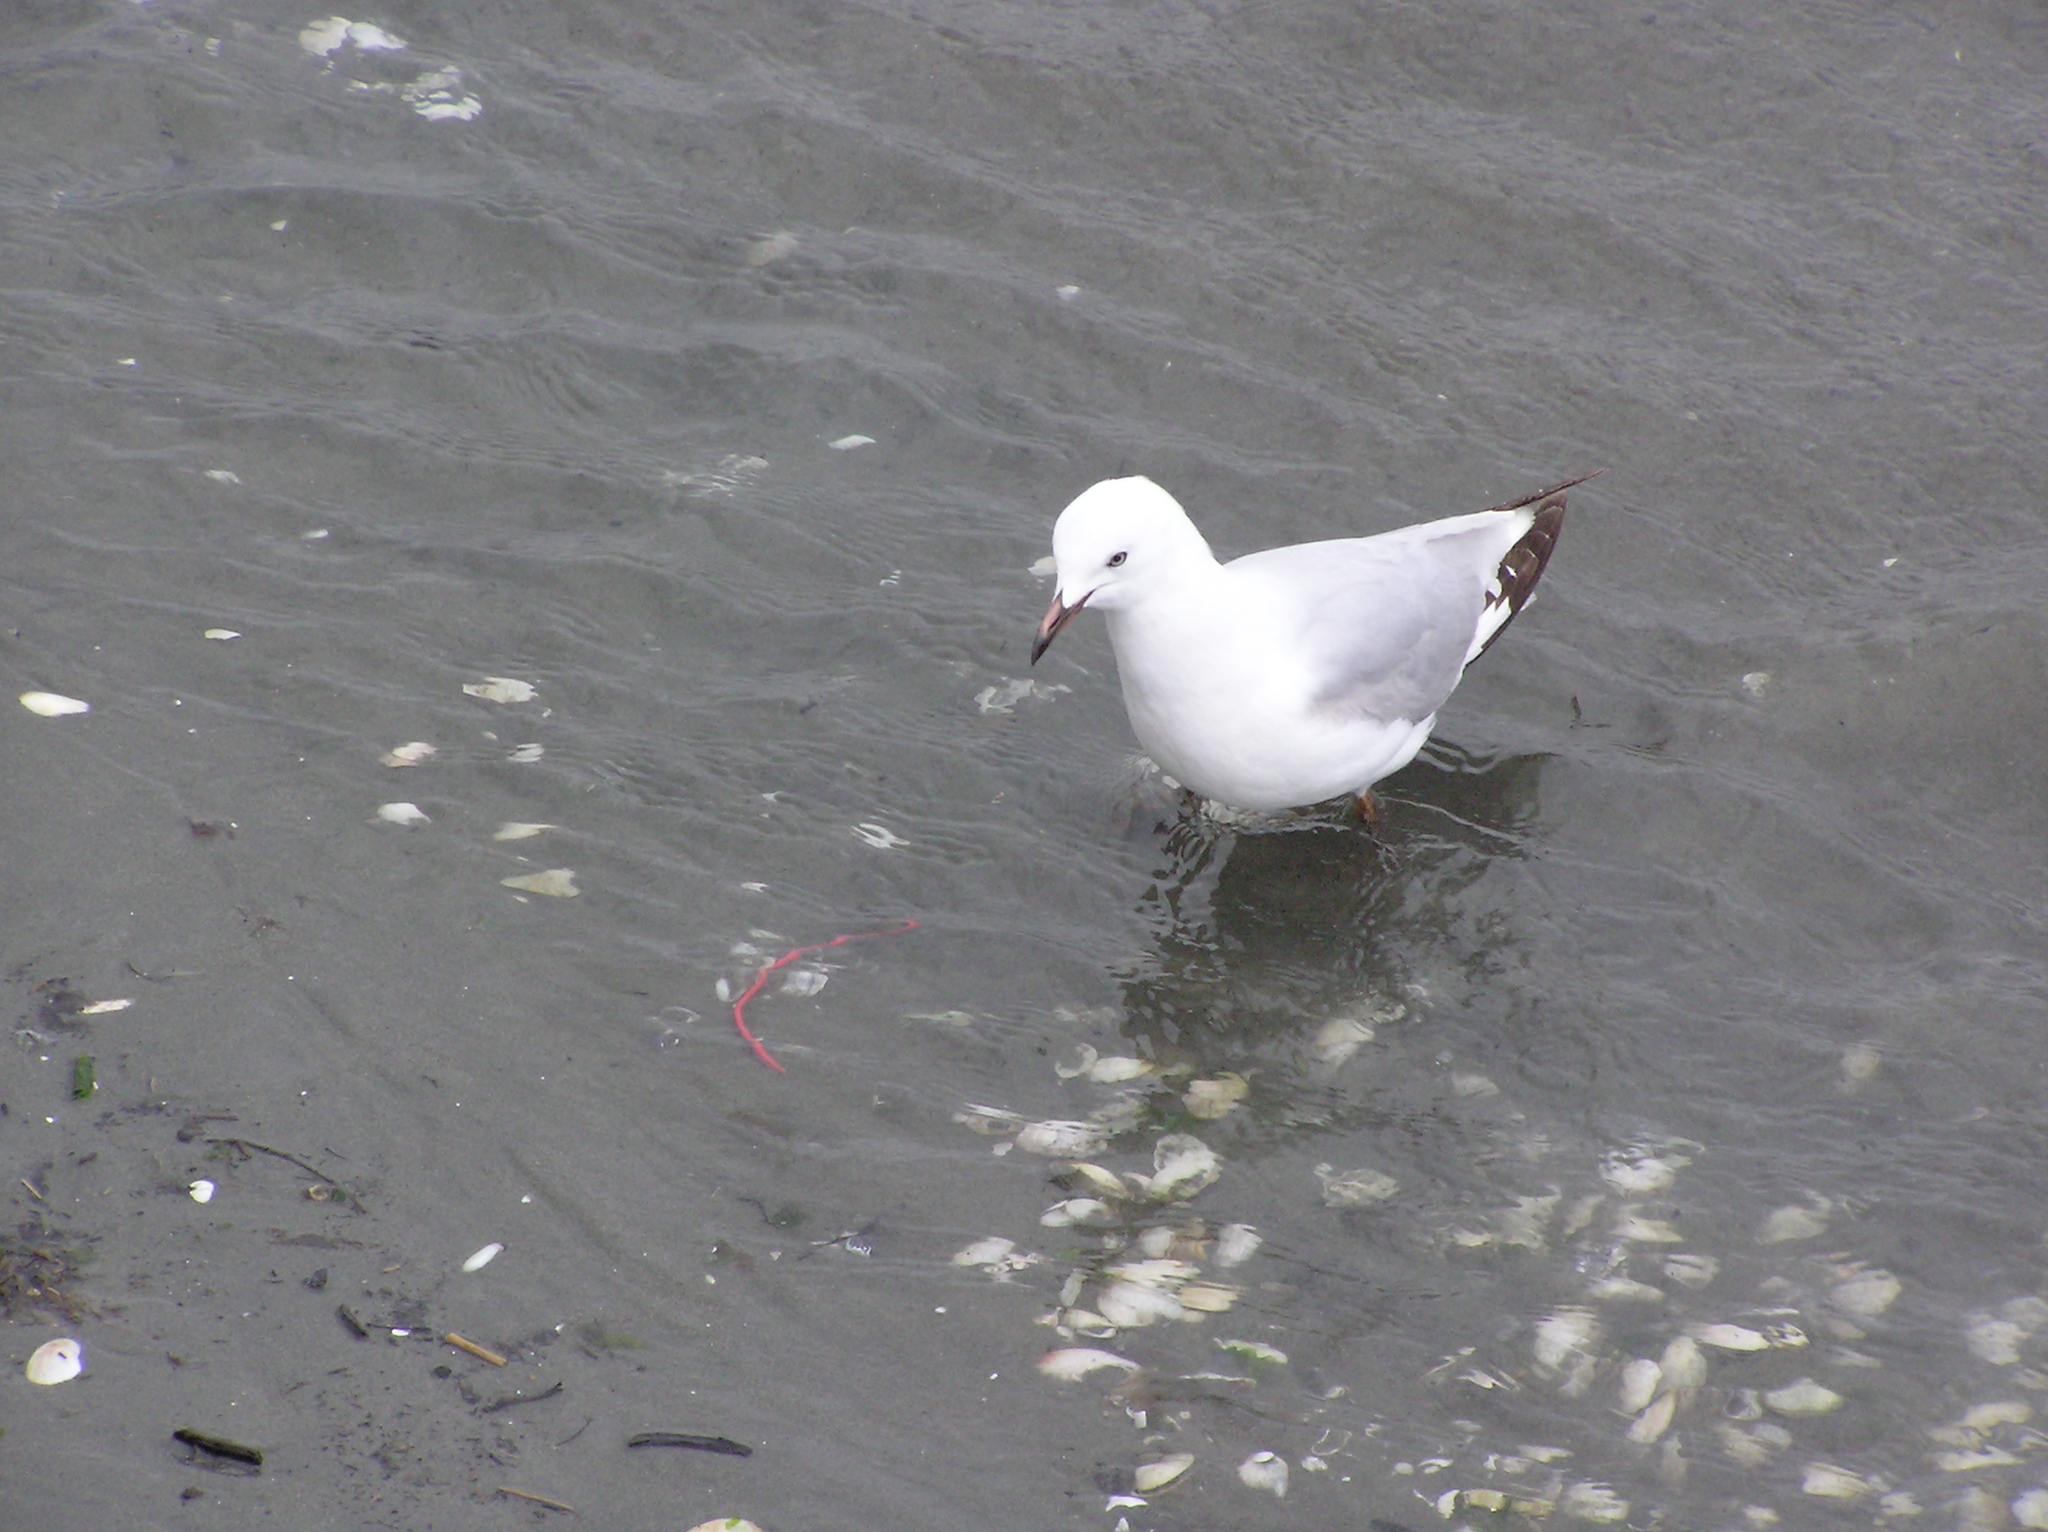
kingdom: Animalia
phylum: Chordata
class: Aves
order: Charadriiformes
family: Laridae
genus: Chroicocephalus
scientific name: Chroicocephalus novaehollandiae
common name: Silver gull
